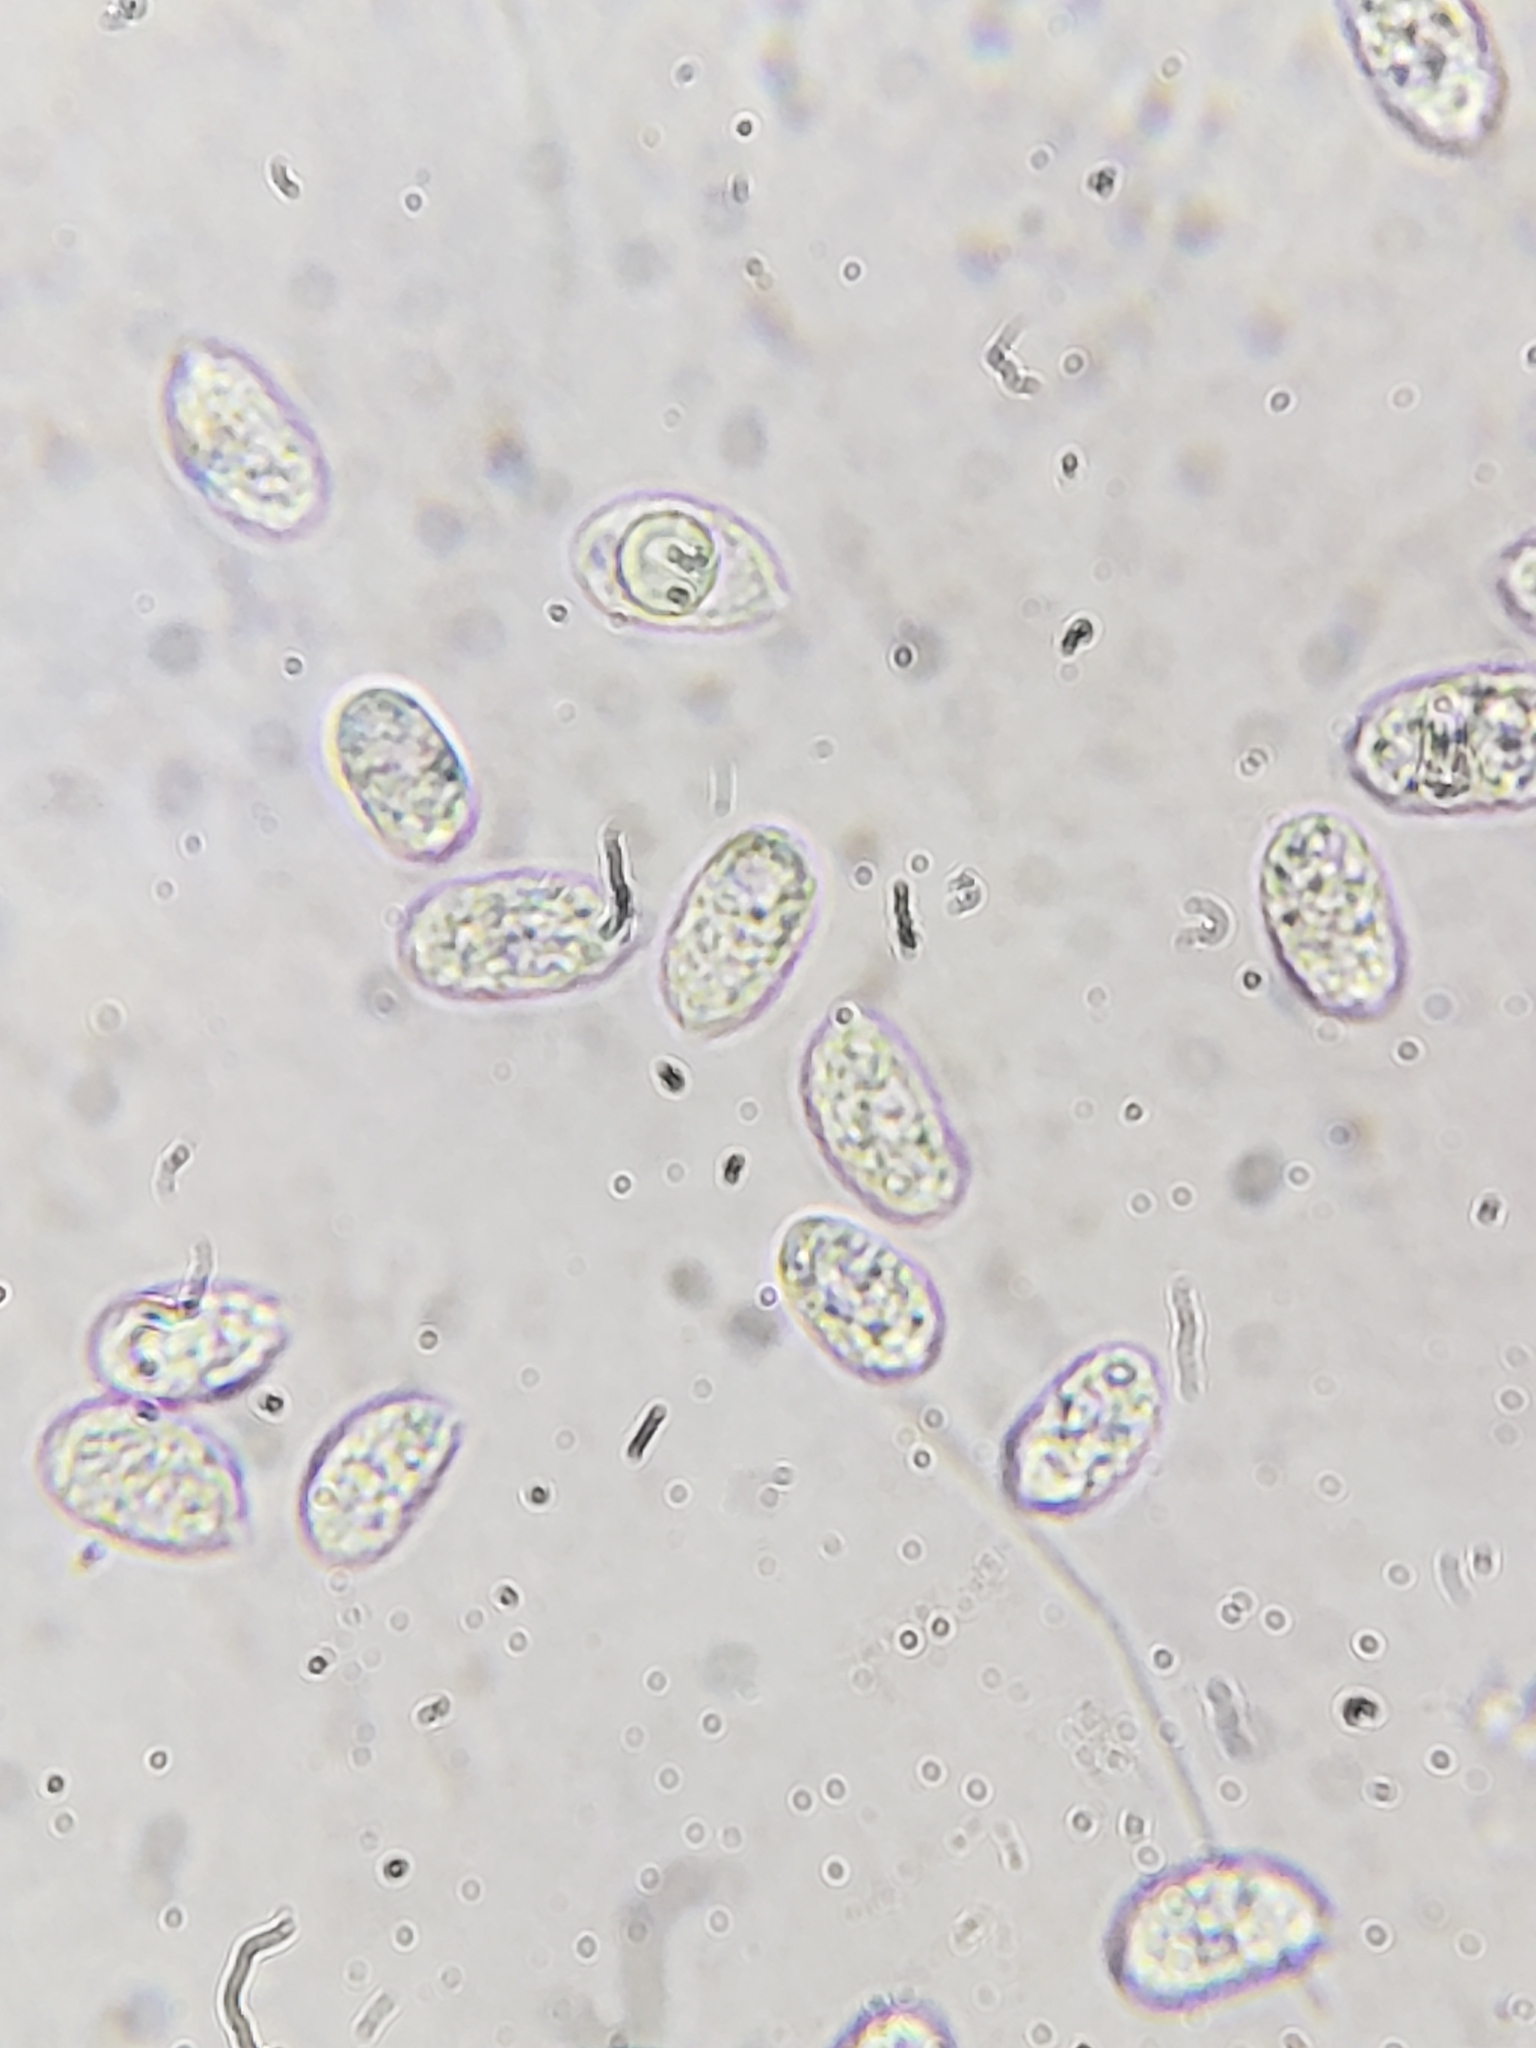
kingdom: Fungi
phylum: Basidiomycota
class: Agaricomycetes
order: Agaricales
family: Mycenaceae
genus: Mycena
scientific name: Mycena leaiana
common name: Orange mycena
